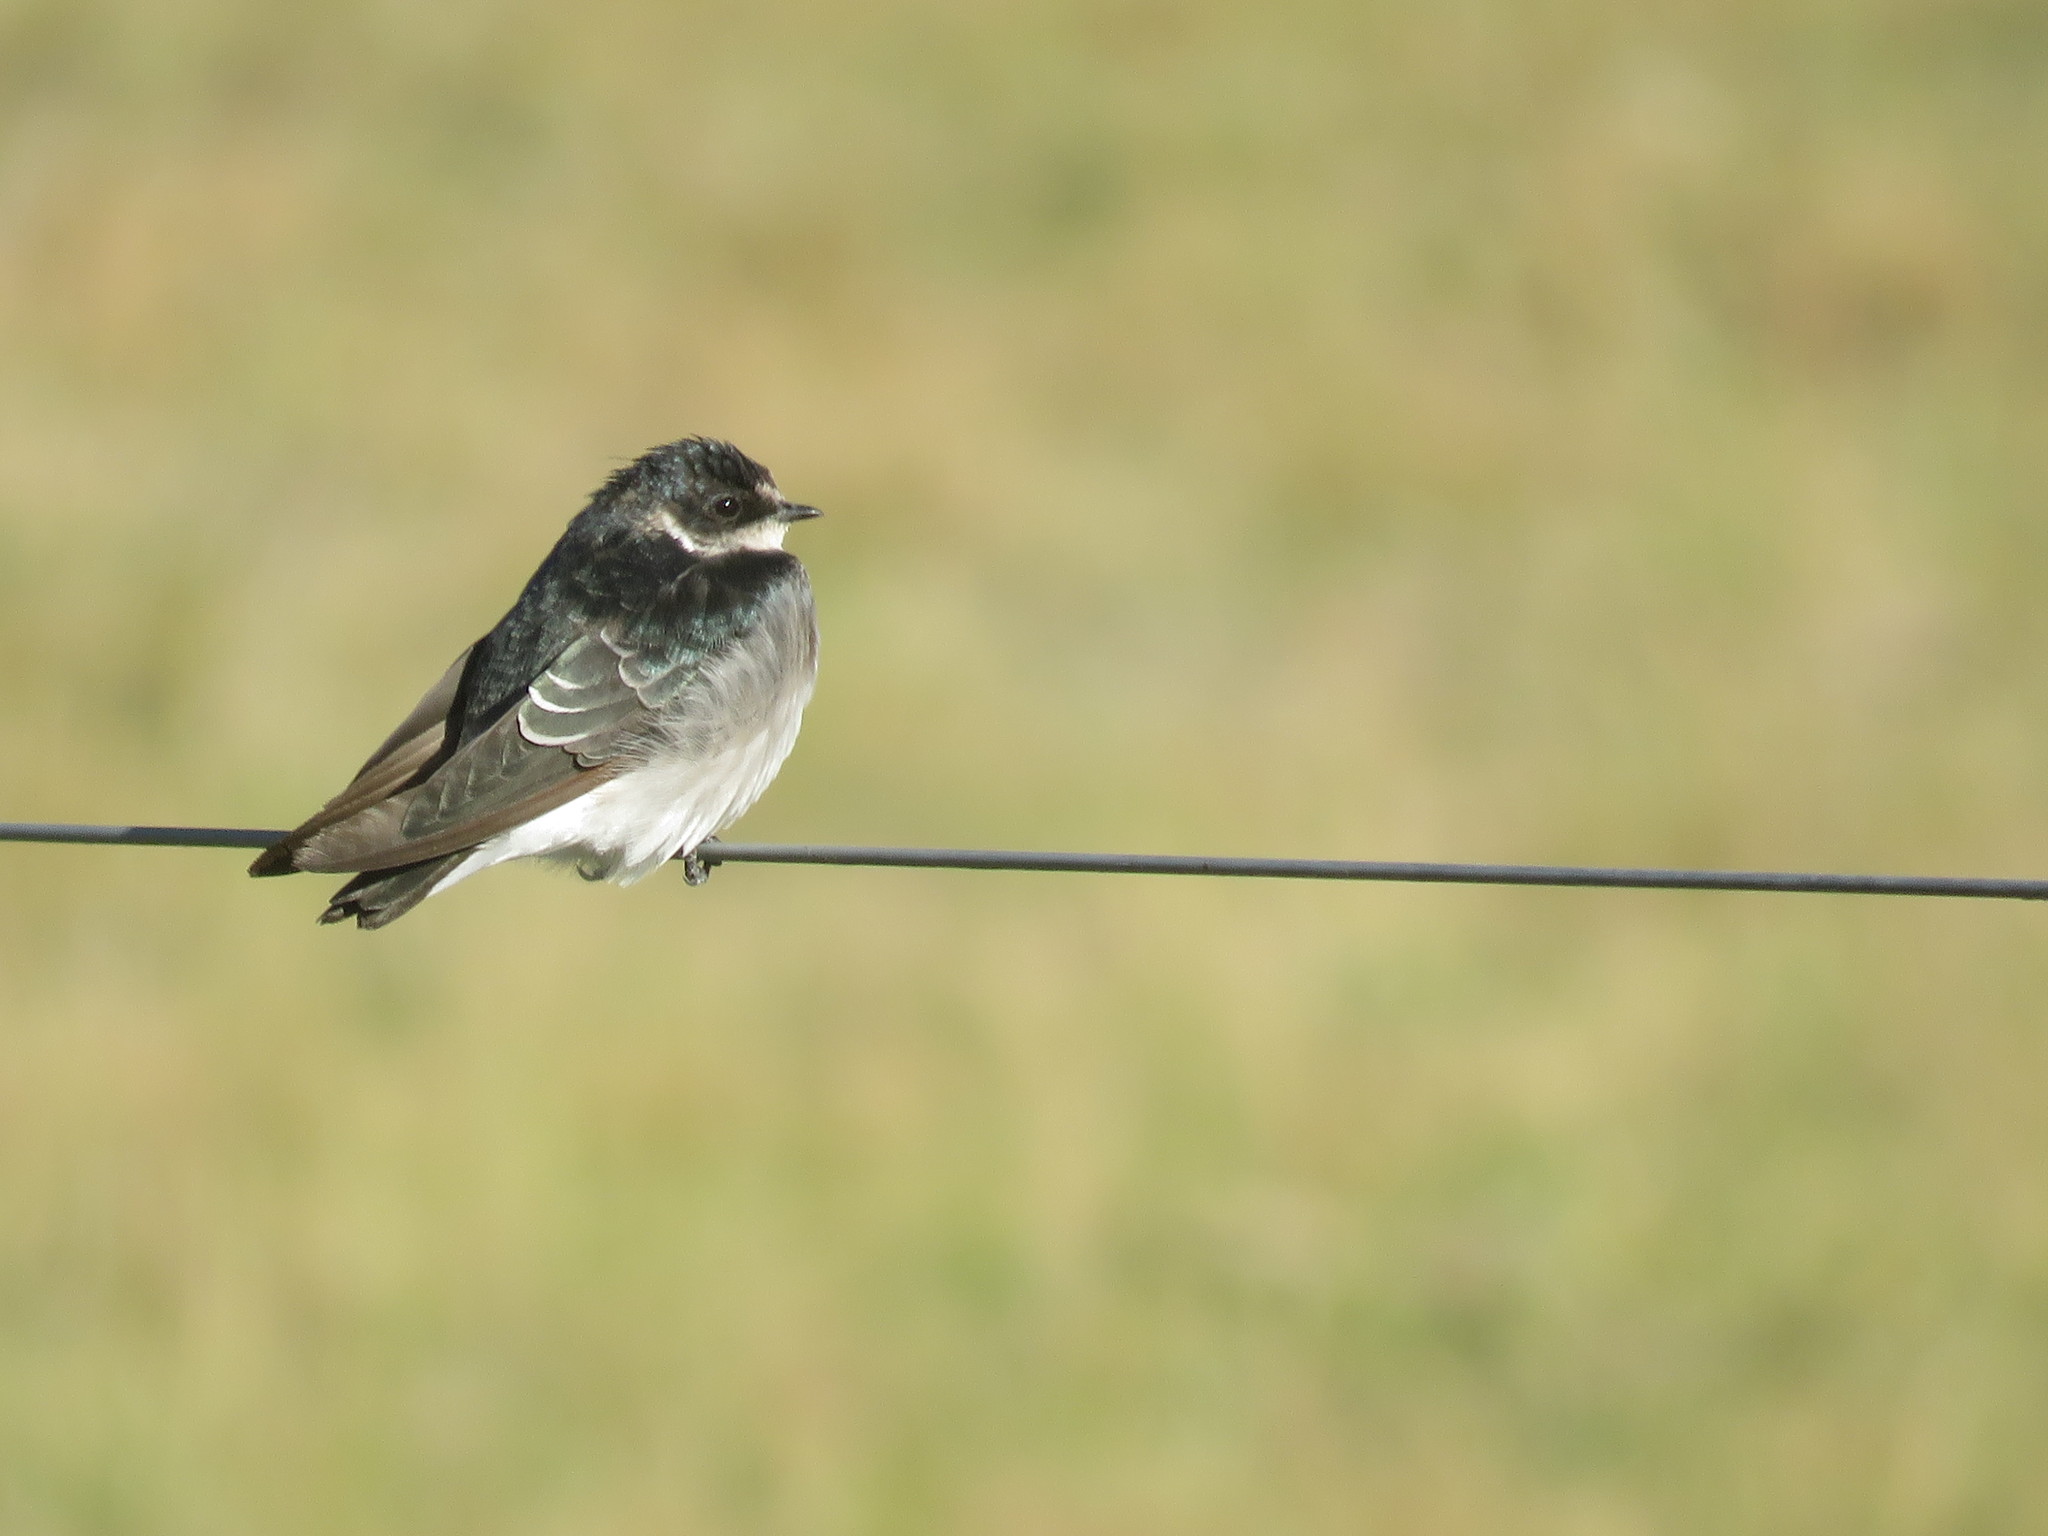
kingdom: Animalia
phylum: Chordata
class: Aves
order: Passeriformes
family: Hirundinidae
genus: Tachycineta
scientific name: Tachycineta leucorrhoa
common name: White-rumped swallow
